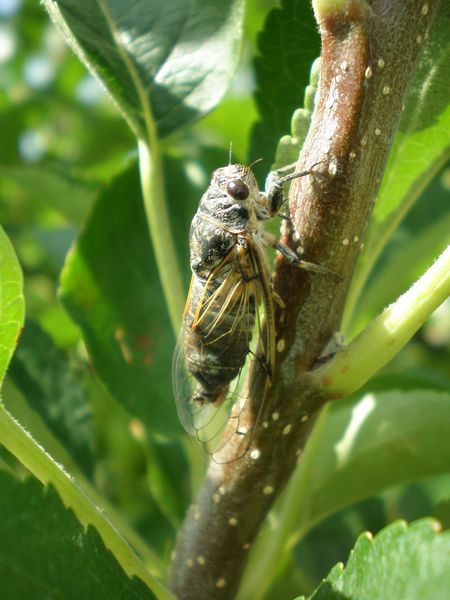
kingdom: Animalia
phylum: Arthropoda
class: Insecta
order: Hemiptera
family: Cicadidae
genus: Cicadatra
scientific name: Cicadatra atra
